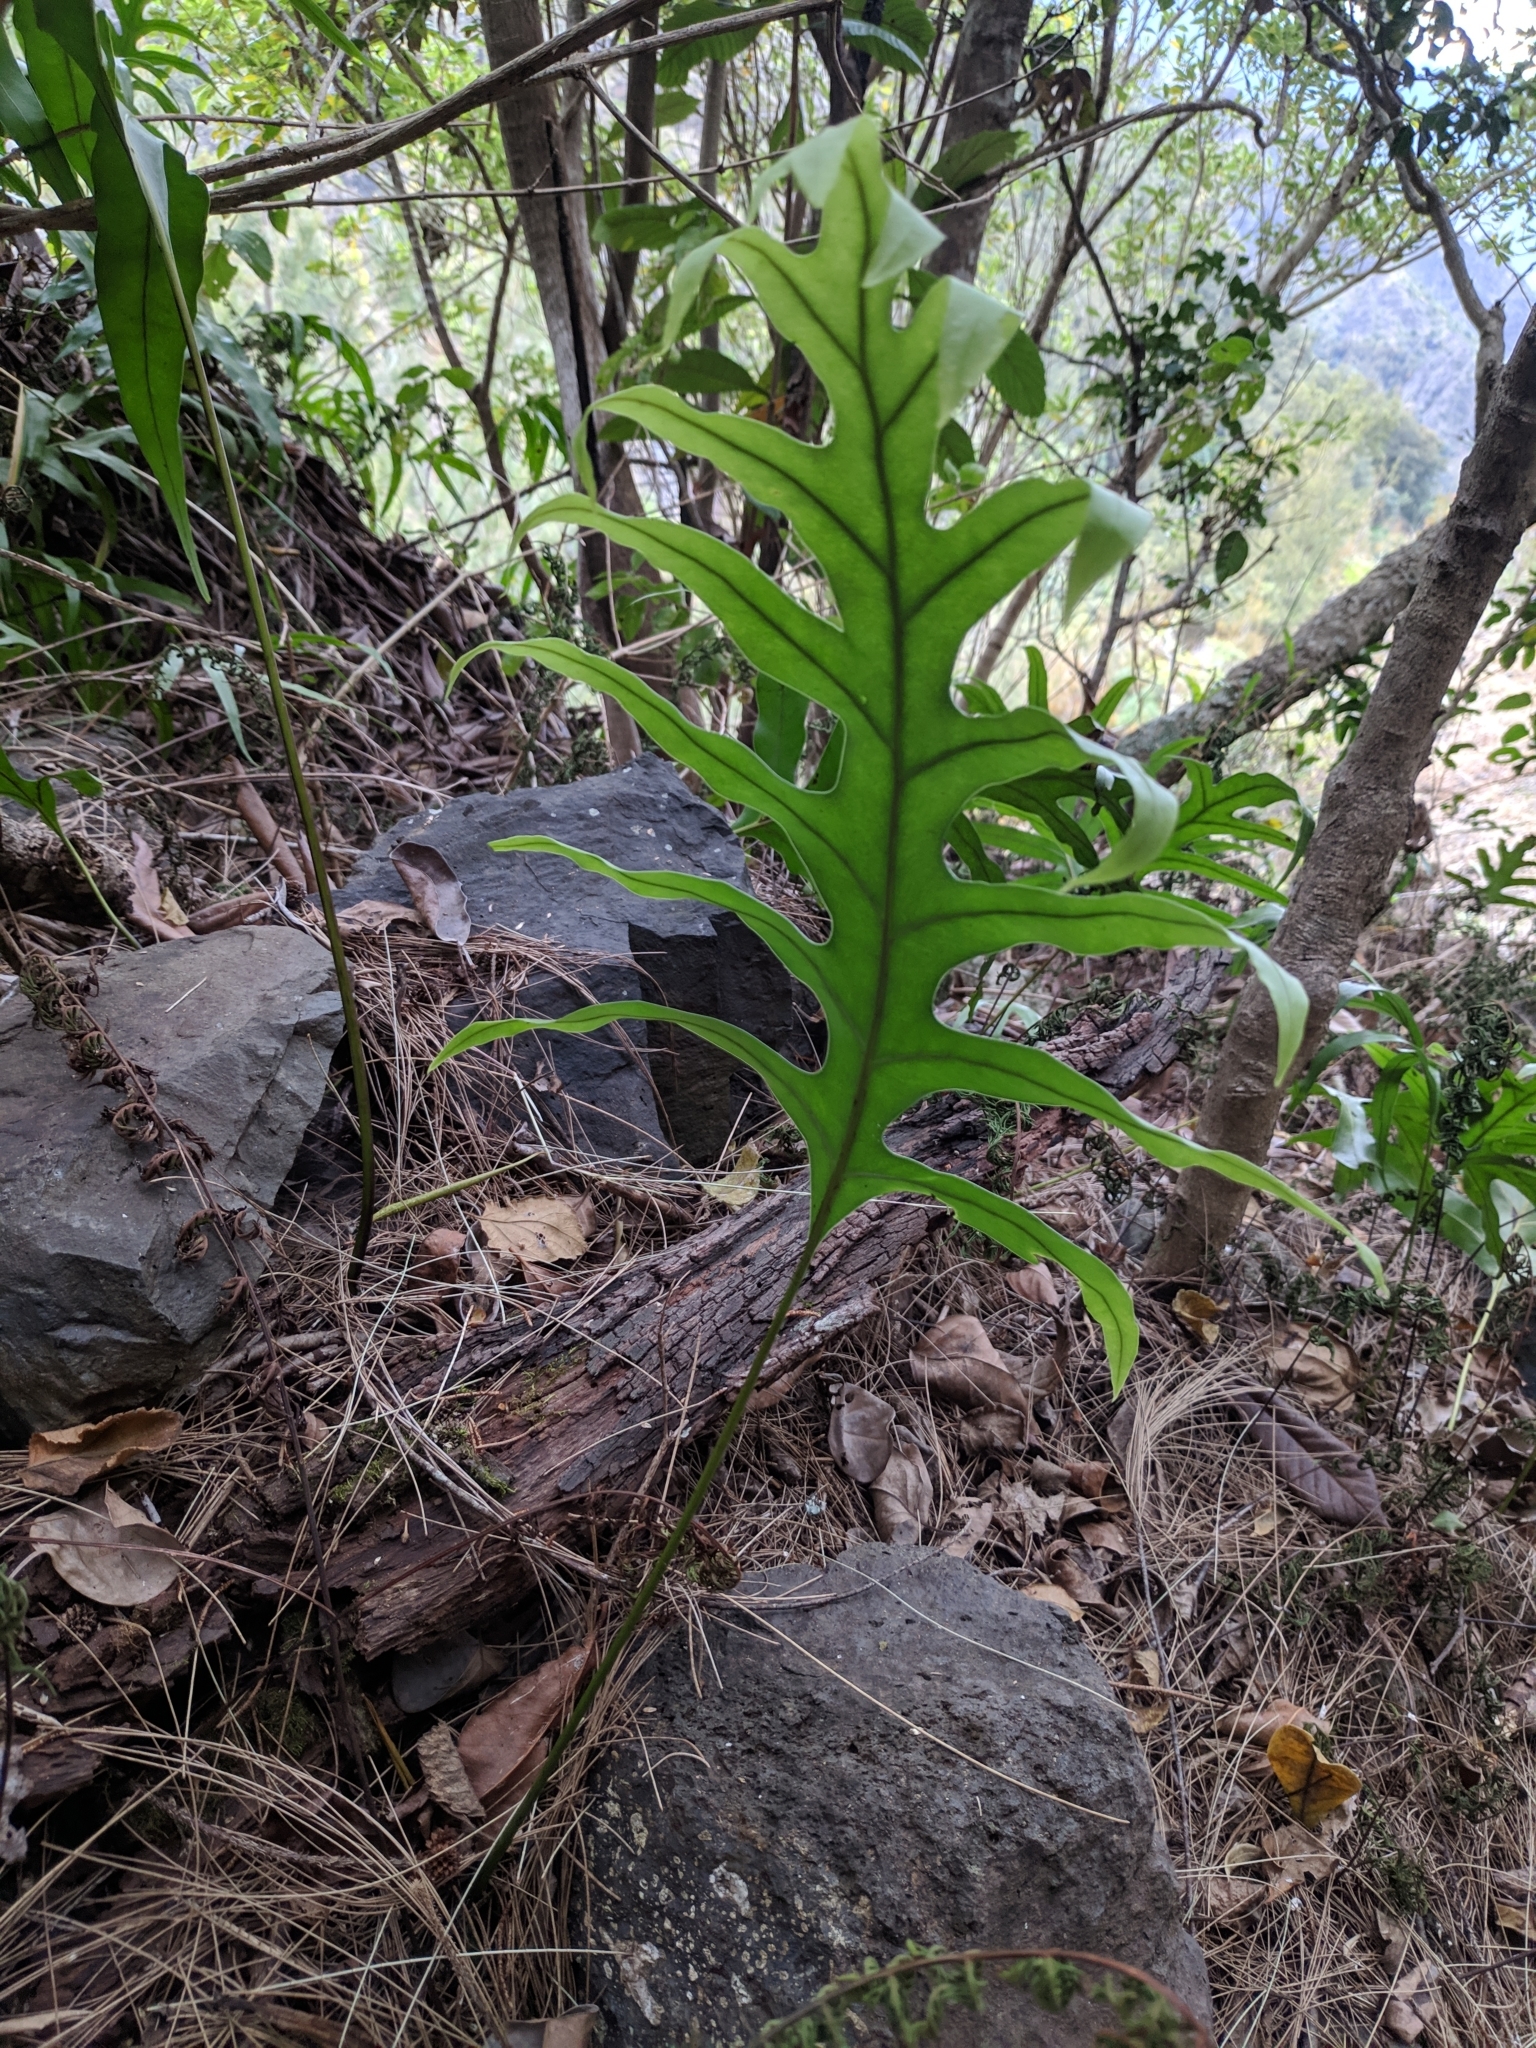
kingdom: Plantae
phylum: Tracheophyta
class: Polypodiopsida
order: Polypodiales
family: Polypodiaceae
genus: Microsorum
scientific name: Microsorum scolopendria
